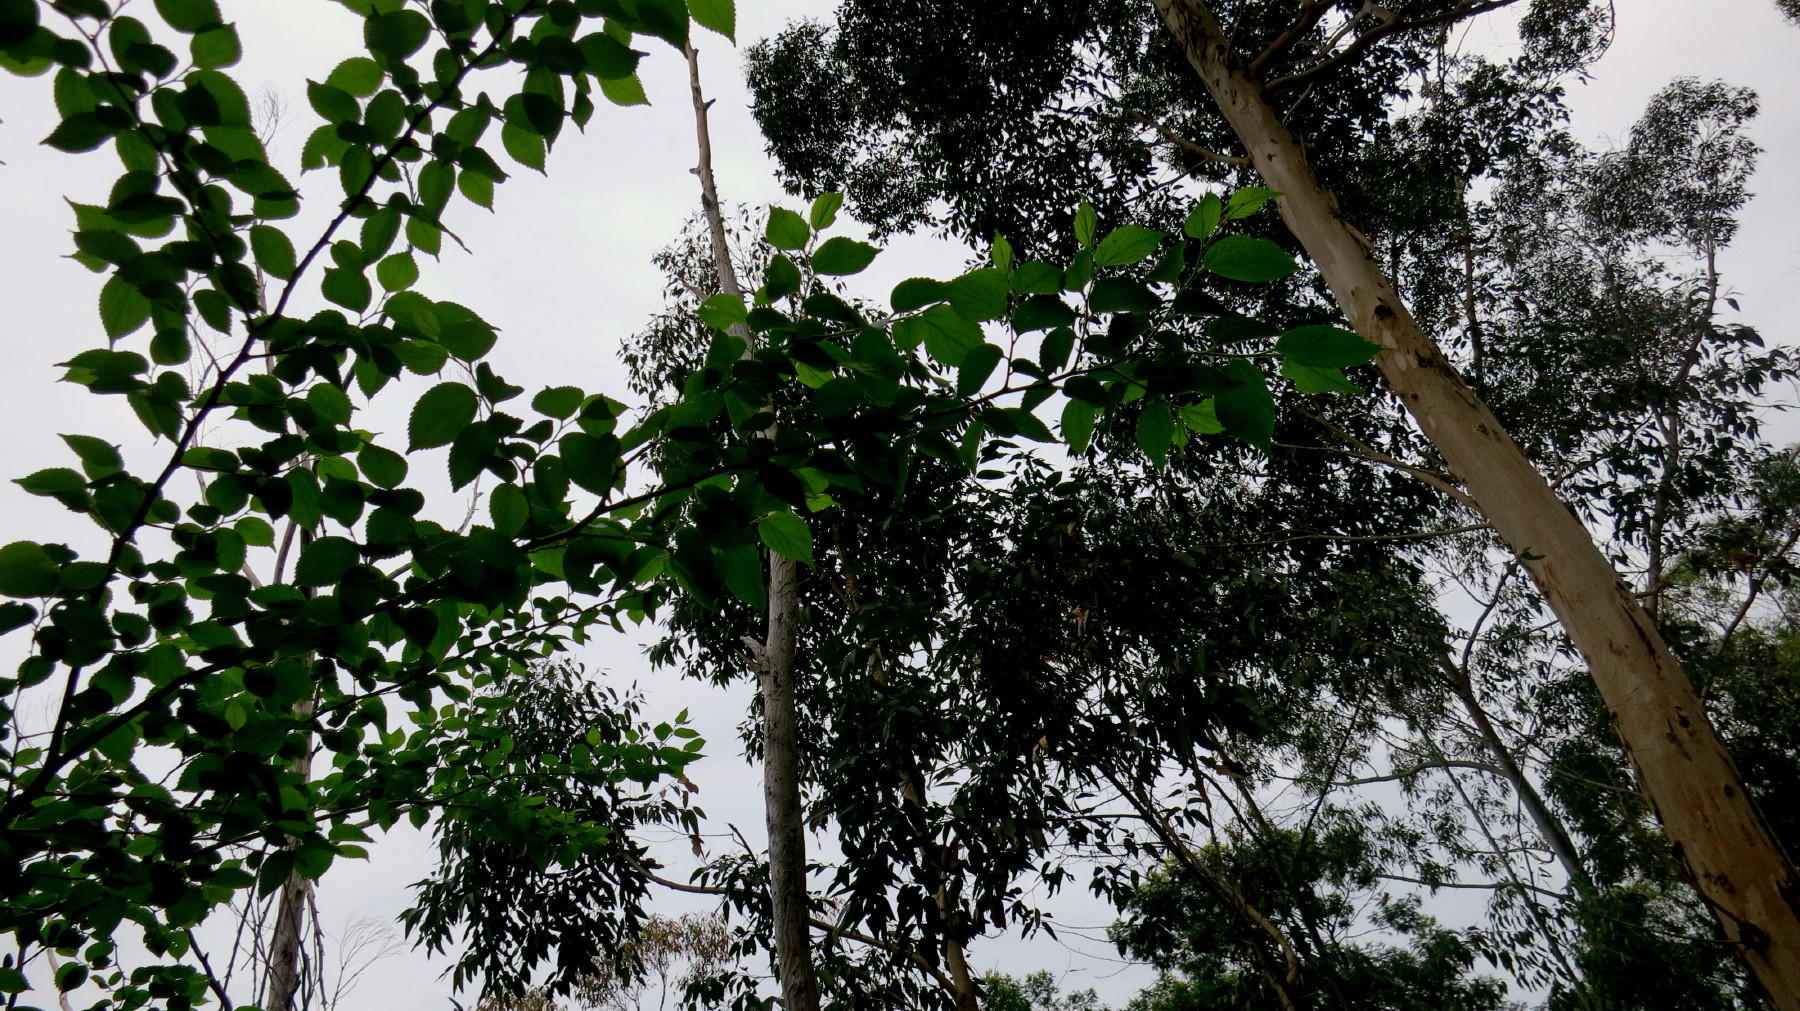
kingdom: Plantae
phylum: Tracheophyta
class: Magnoliopsida
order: Rosales
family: Cannabaceae
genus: Celtis
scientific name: Celtis africana
